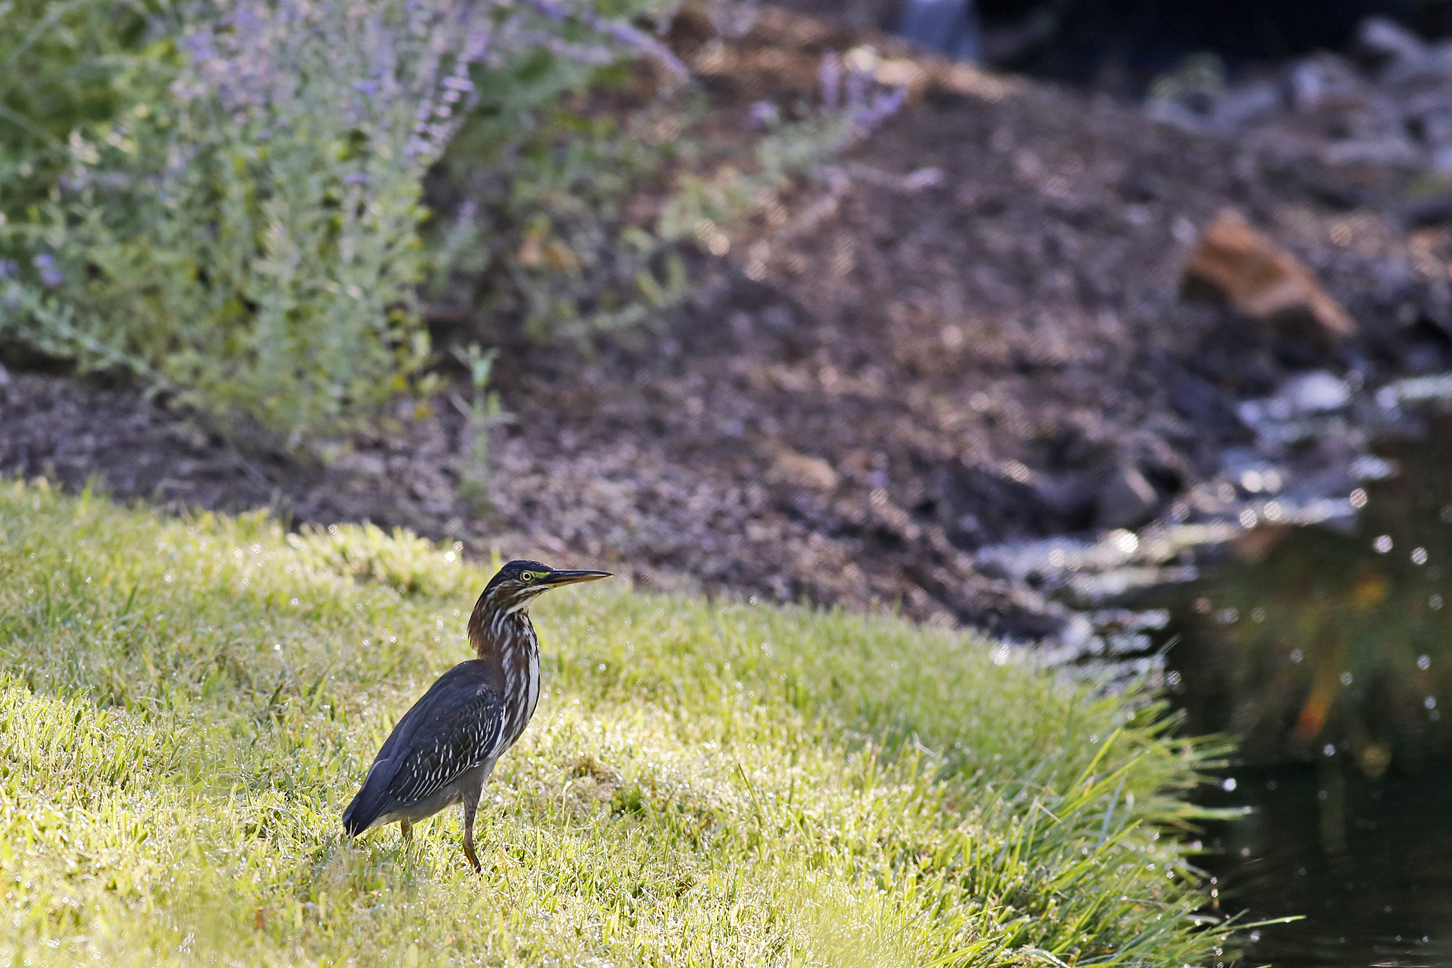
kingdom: Animalia
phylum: Chordata
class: Aves
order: Pelecaniformes
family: Ardeidae
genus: Butorides
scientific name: Butorides virescens
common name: Green heron
